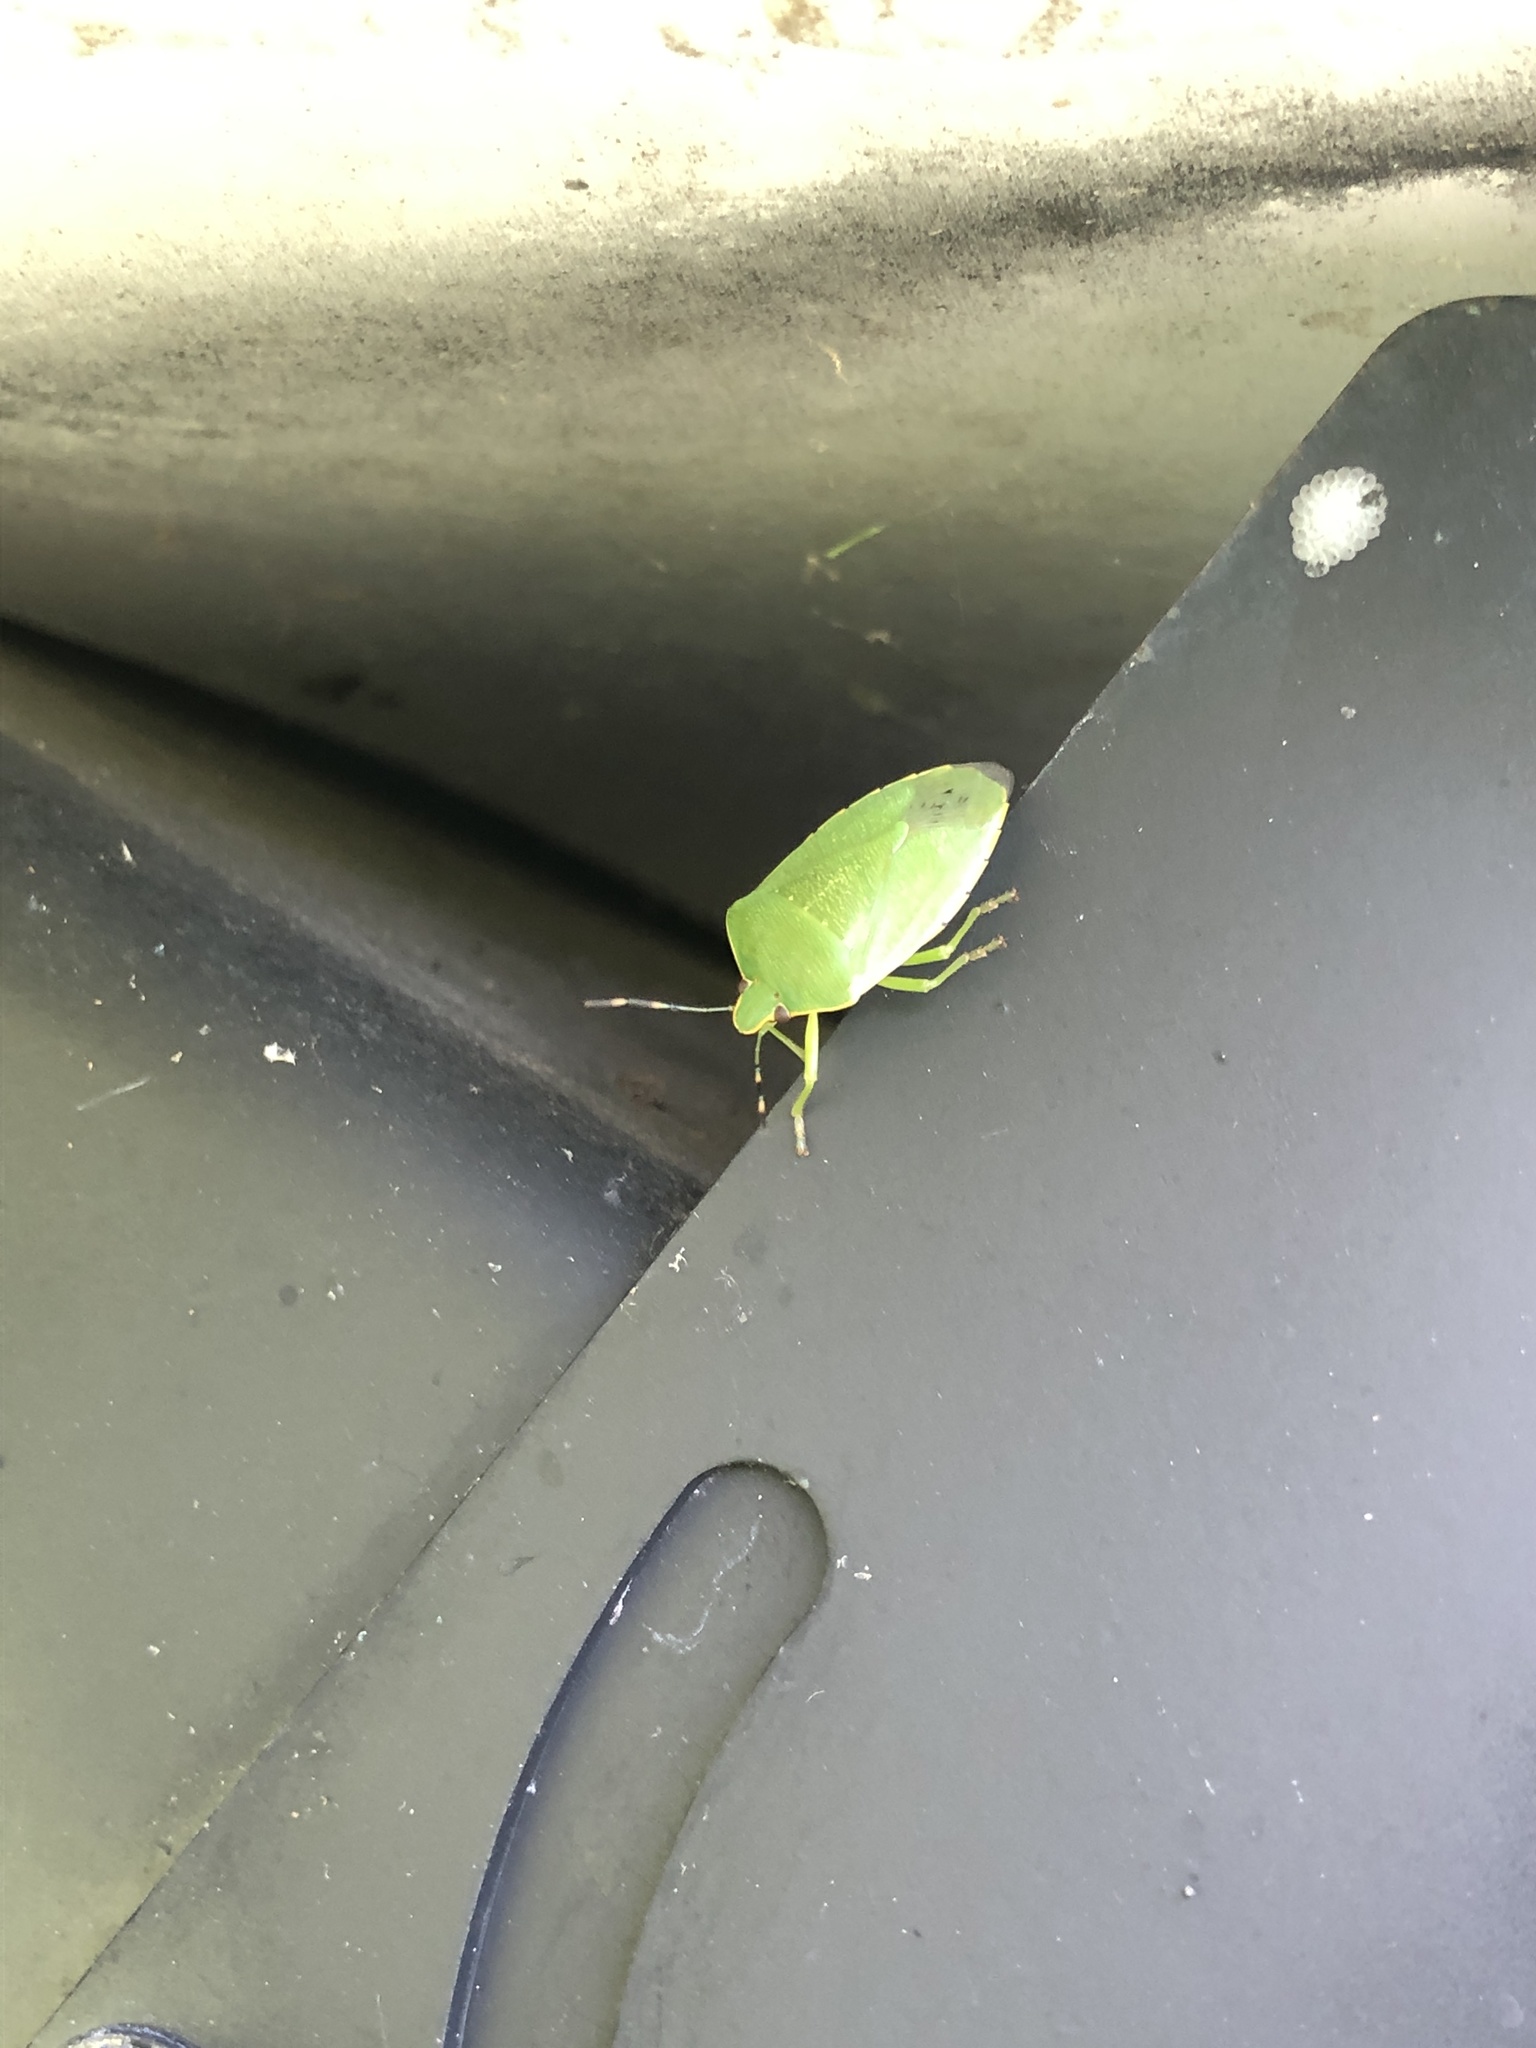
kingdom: Animalia
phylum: Arthropoda
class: Insecta
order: Hemiptera
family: Pentatomidae
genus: Chinavia
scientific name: Chinavia hilaris
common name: Green stink bug
